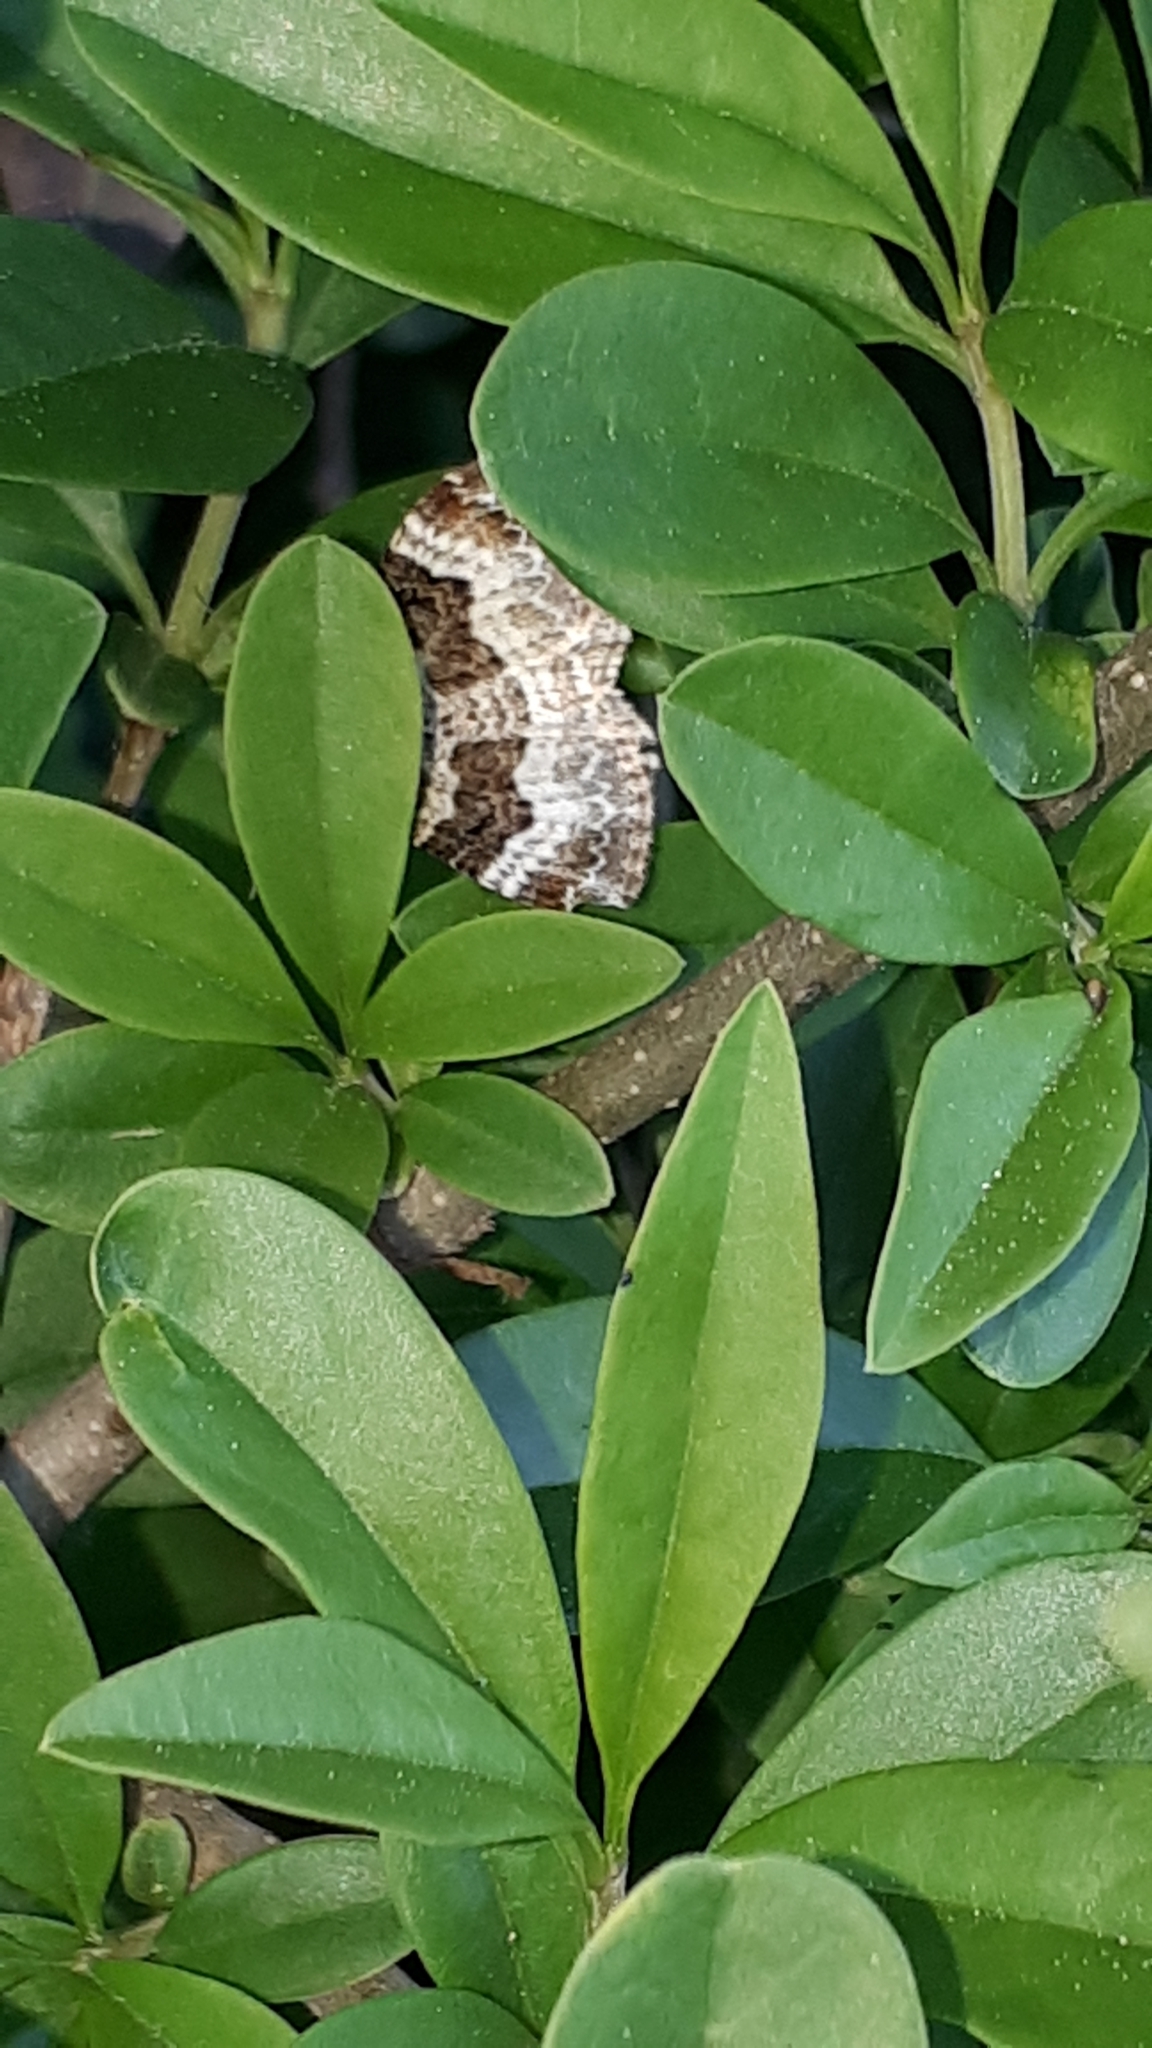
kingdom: Animalia
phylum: Arthropoda
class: Insecta
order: Lepidoptera
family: Geometridae
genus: Epirrhoe
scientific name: Epirrhoe alternata
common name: Common carpet
